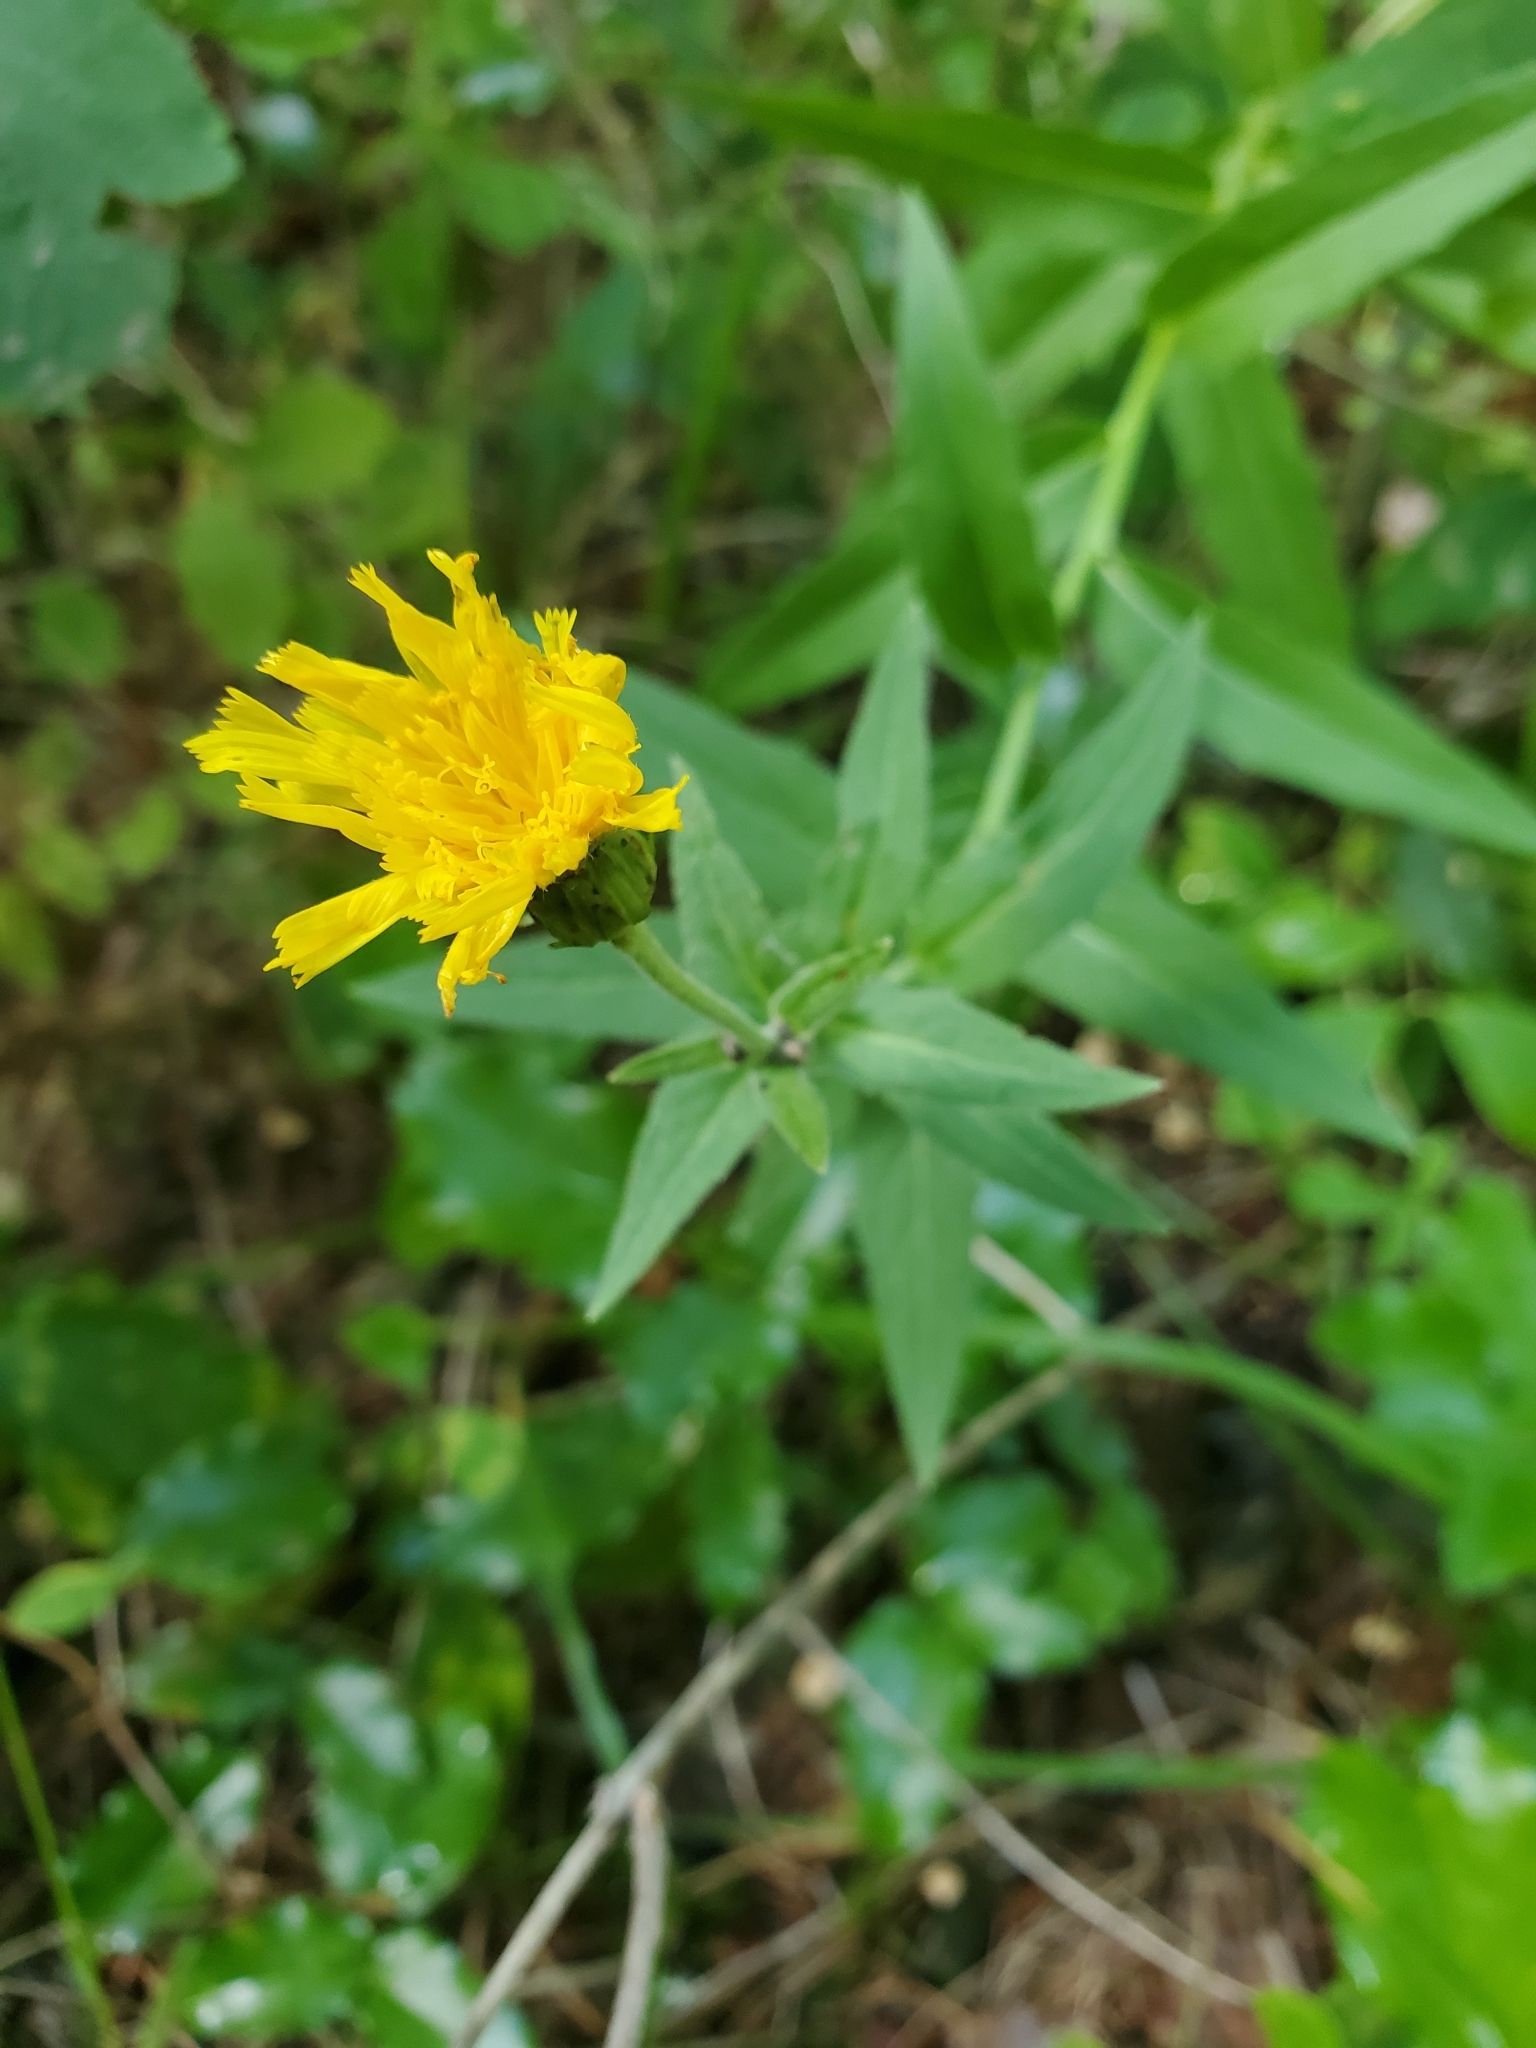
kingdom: Plantae
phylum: Tracheophyta
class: Magnoliopsida
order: Asterales
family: Asteraceae
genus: Hieracium
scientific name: Hieracium umbellatum
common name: Northern hawkweed
